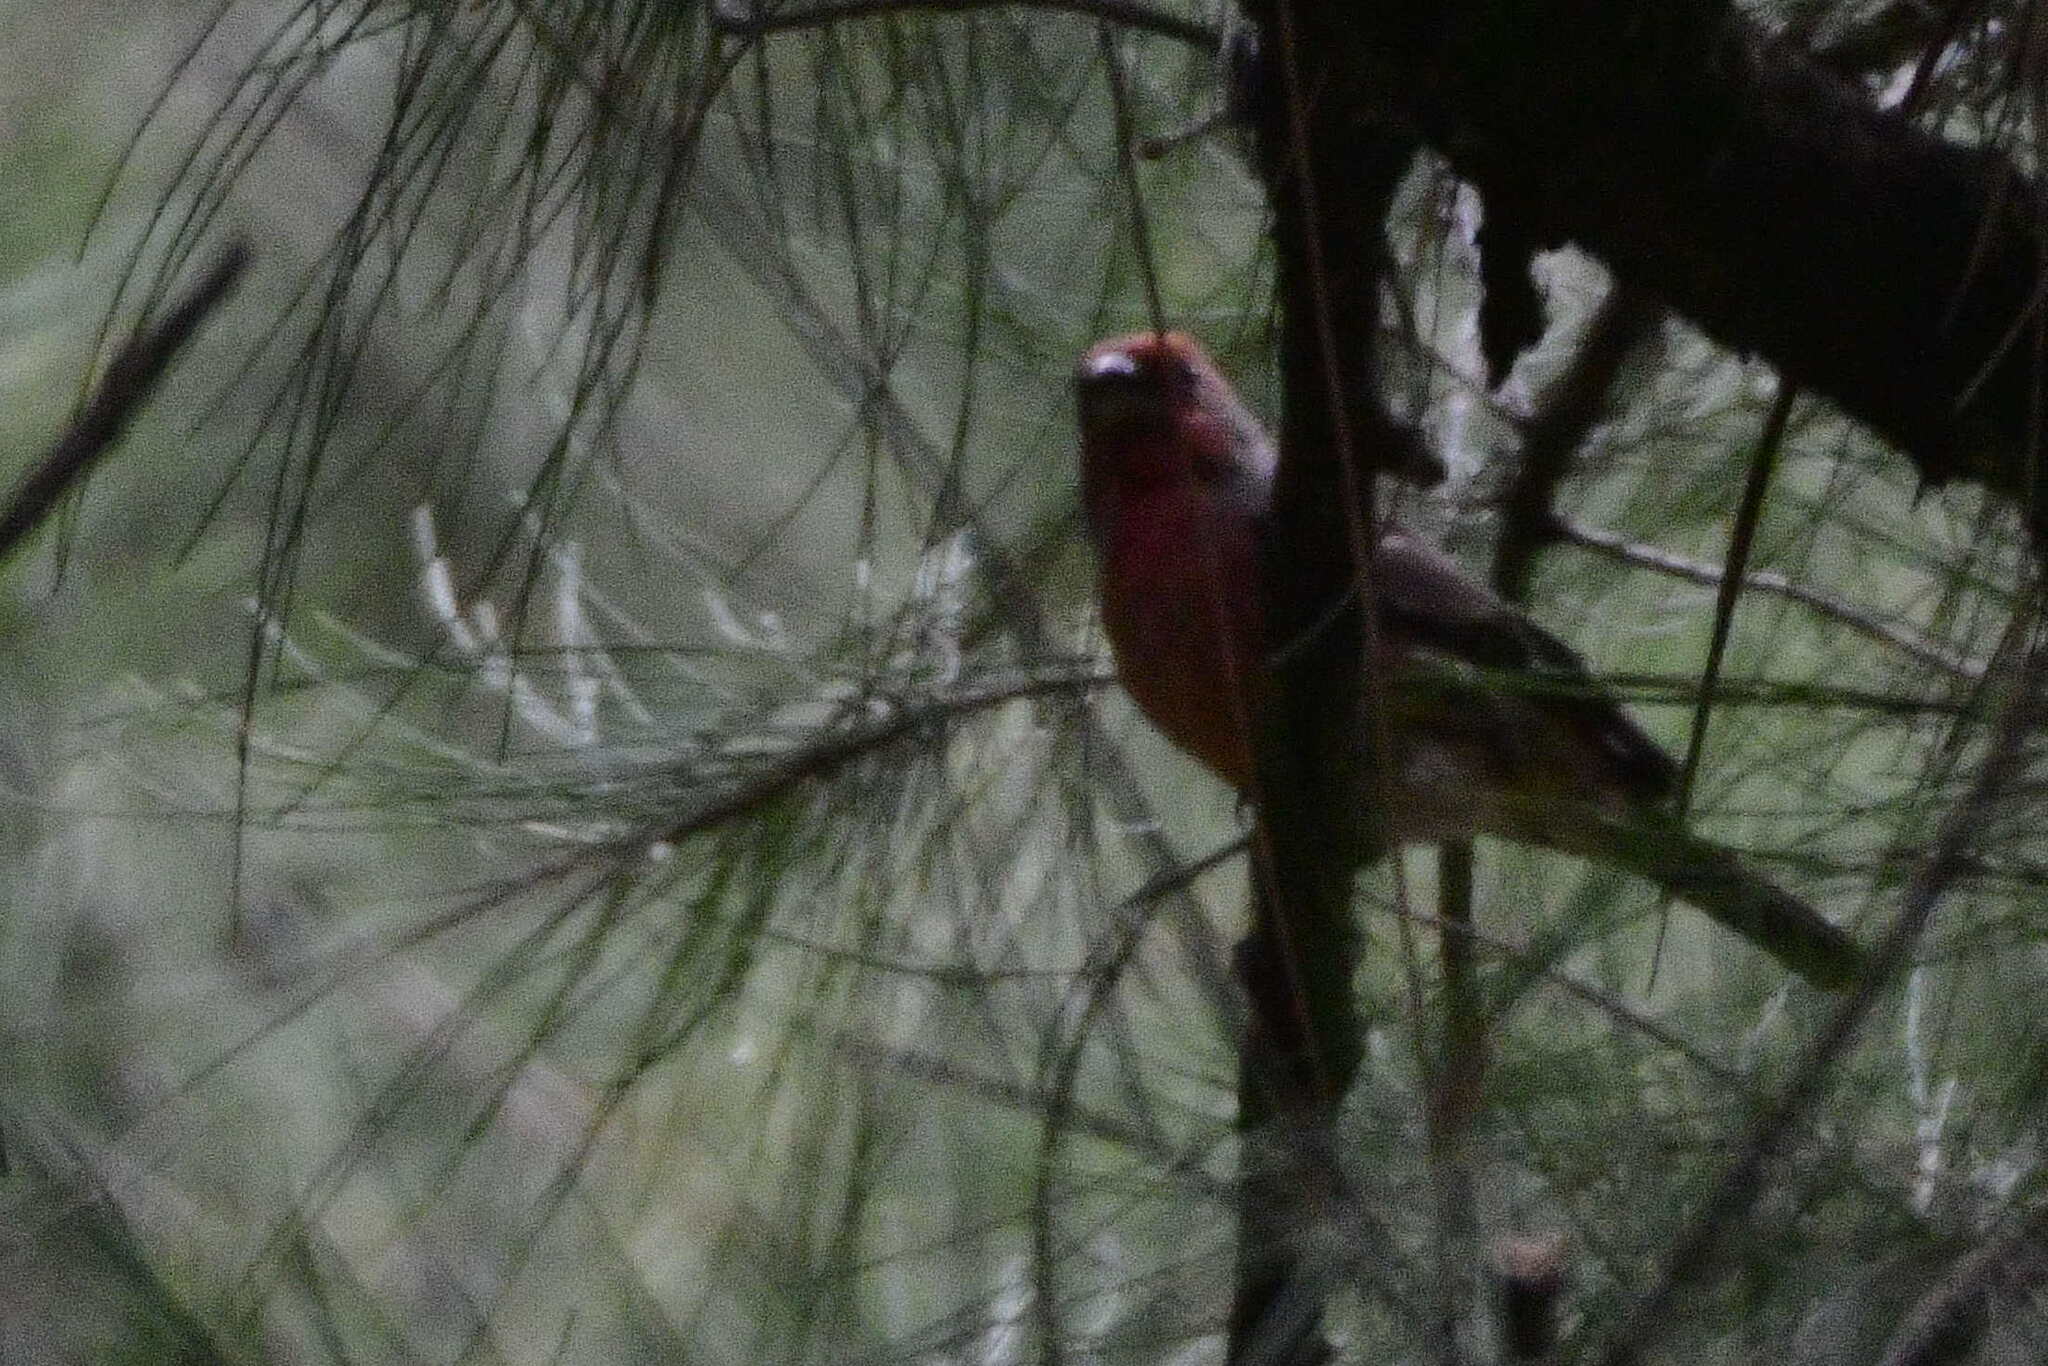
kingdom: Animalia
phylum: Chordata
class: Aves
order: Passeriformes
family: Fringillidae
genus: Haemorhous
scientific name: Haemorhous mexicanus
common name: House finch
